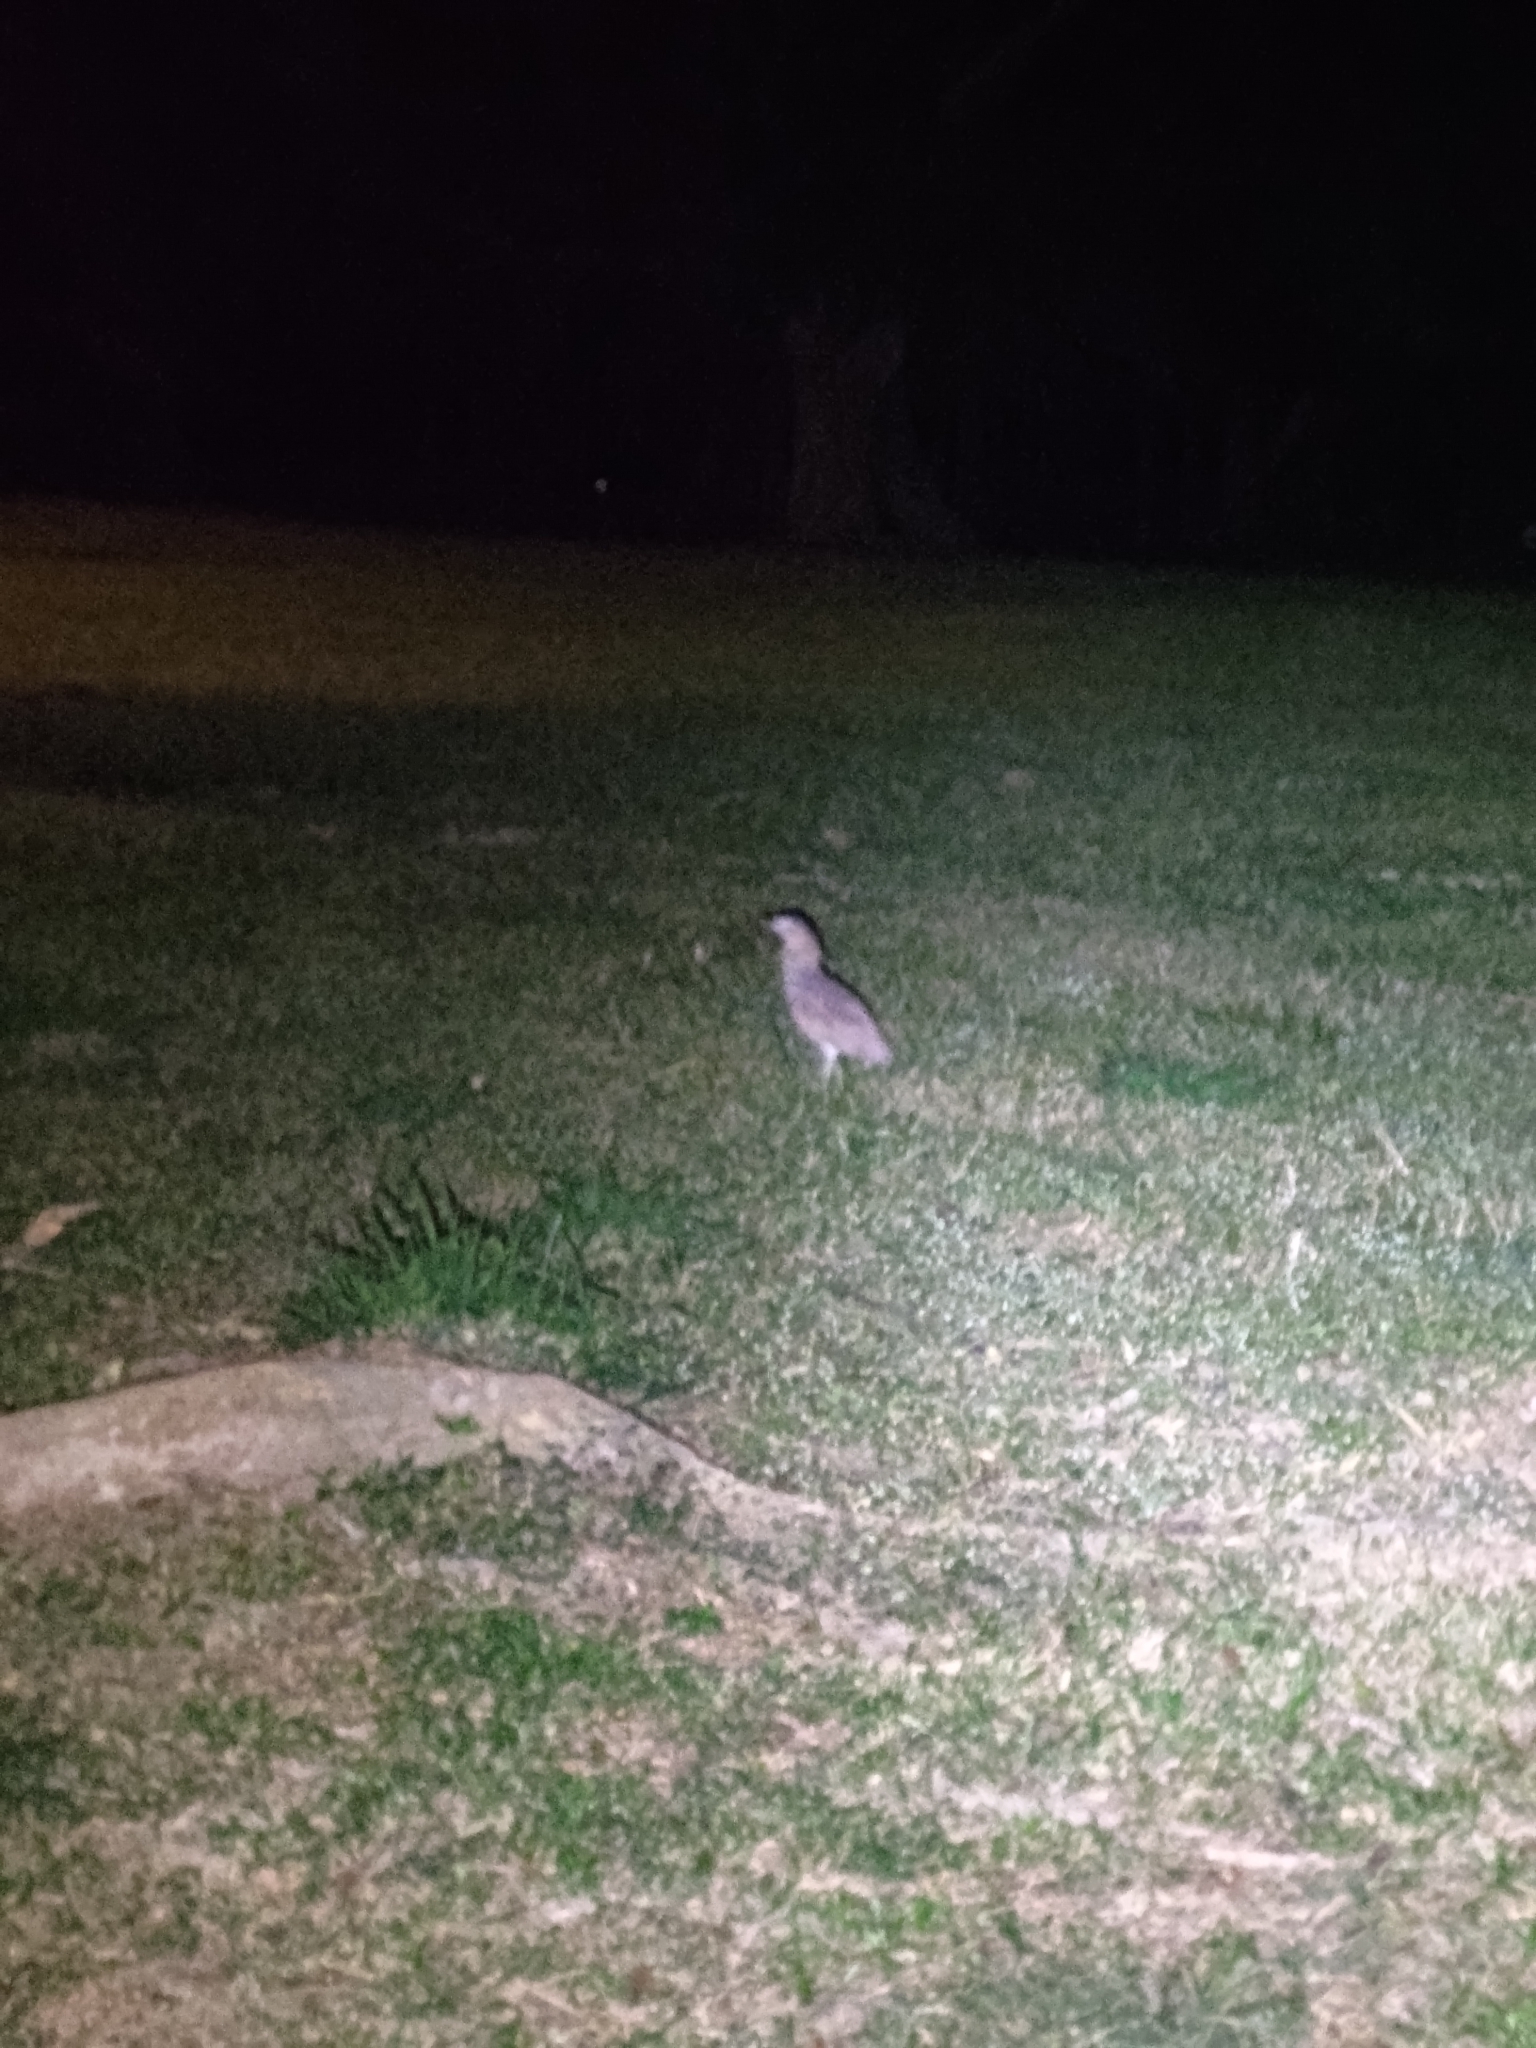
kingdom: Animalia
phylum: Chordata
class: Aves
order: Pelecaniformes
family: Ardeidae
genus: Gorsachius
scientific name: Gorsachius melanolophus
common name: Malayan night heron
